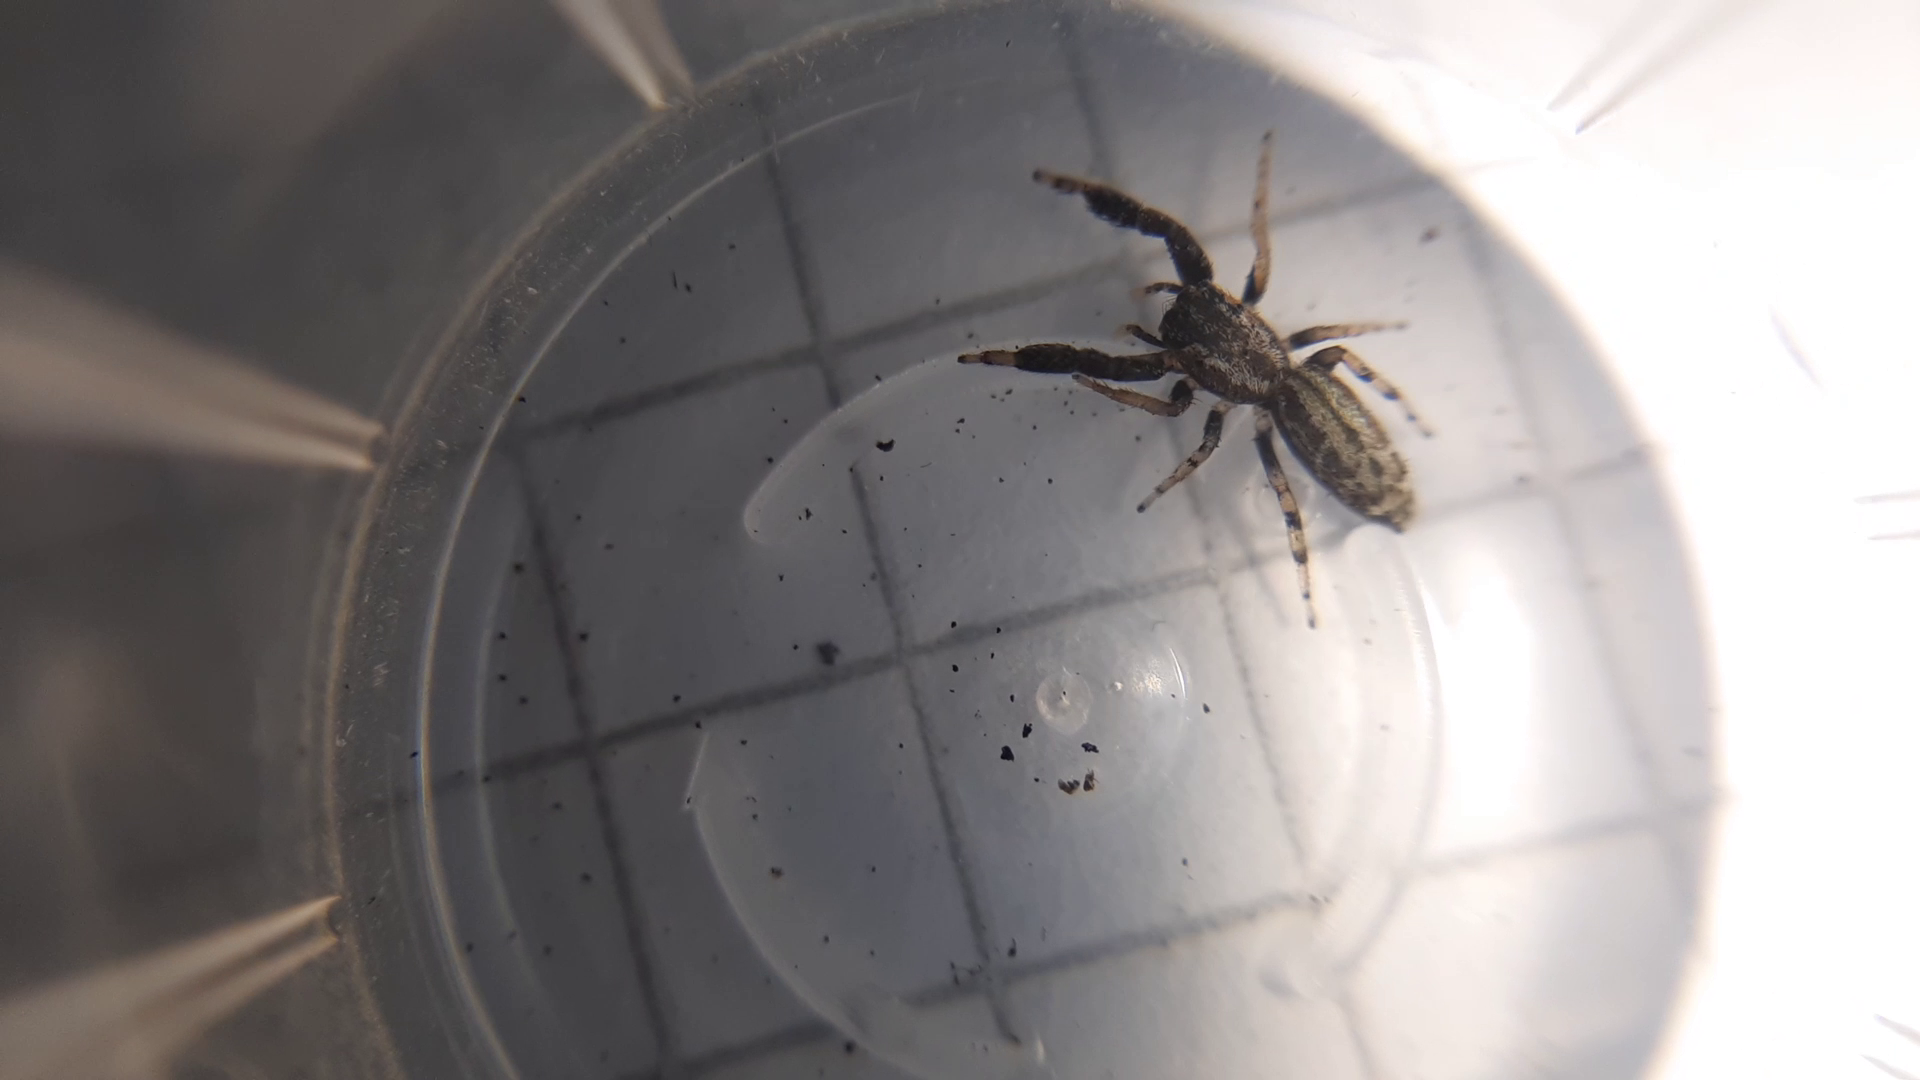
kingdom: Animalia
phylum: Arthropoda
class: Arachnida
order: Araneae
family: Salticidae
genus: Marpissa
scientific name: Marpissa nivoyi
